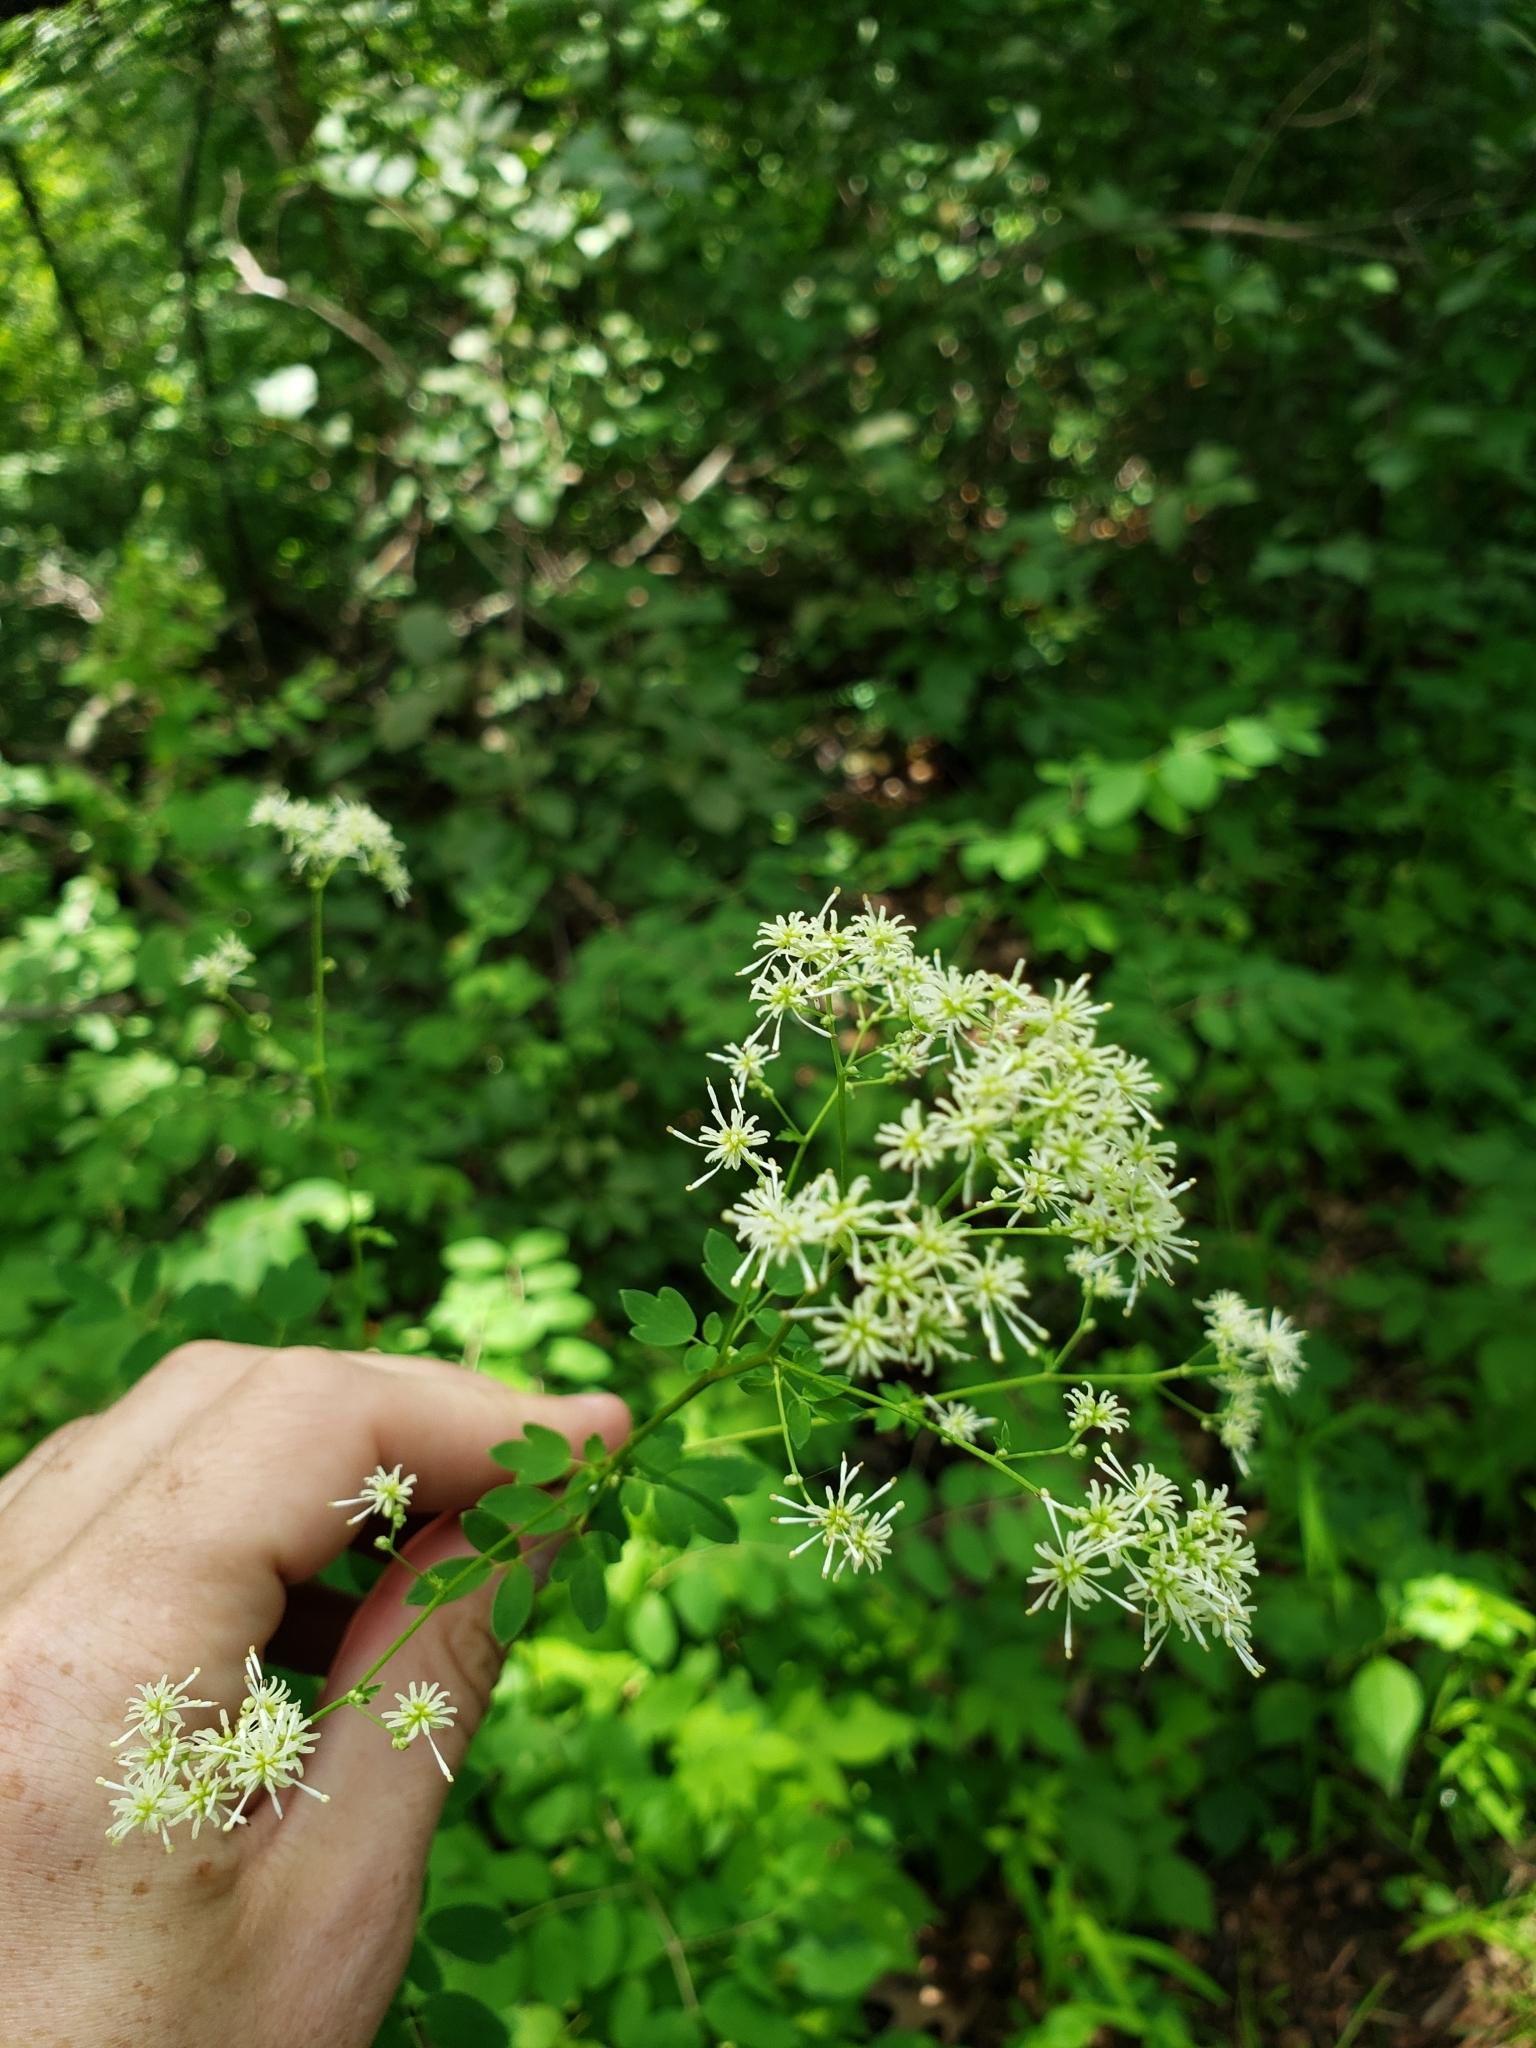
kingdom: Plantae
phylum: Tracheophyta
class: Magnoliopsida
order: Ranunculales
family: Ranunculaceae
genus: Thalictrum
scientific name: Thalictrum pubescens
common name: King-of-the-meadow
